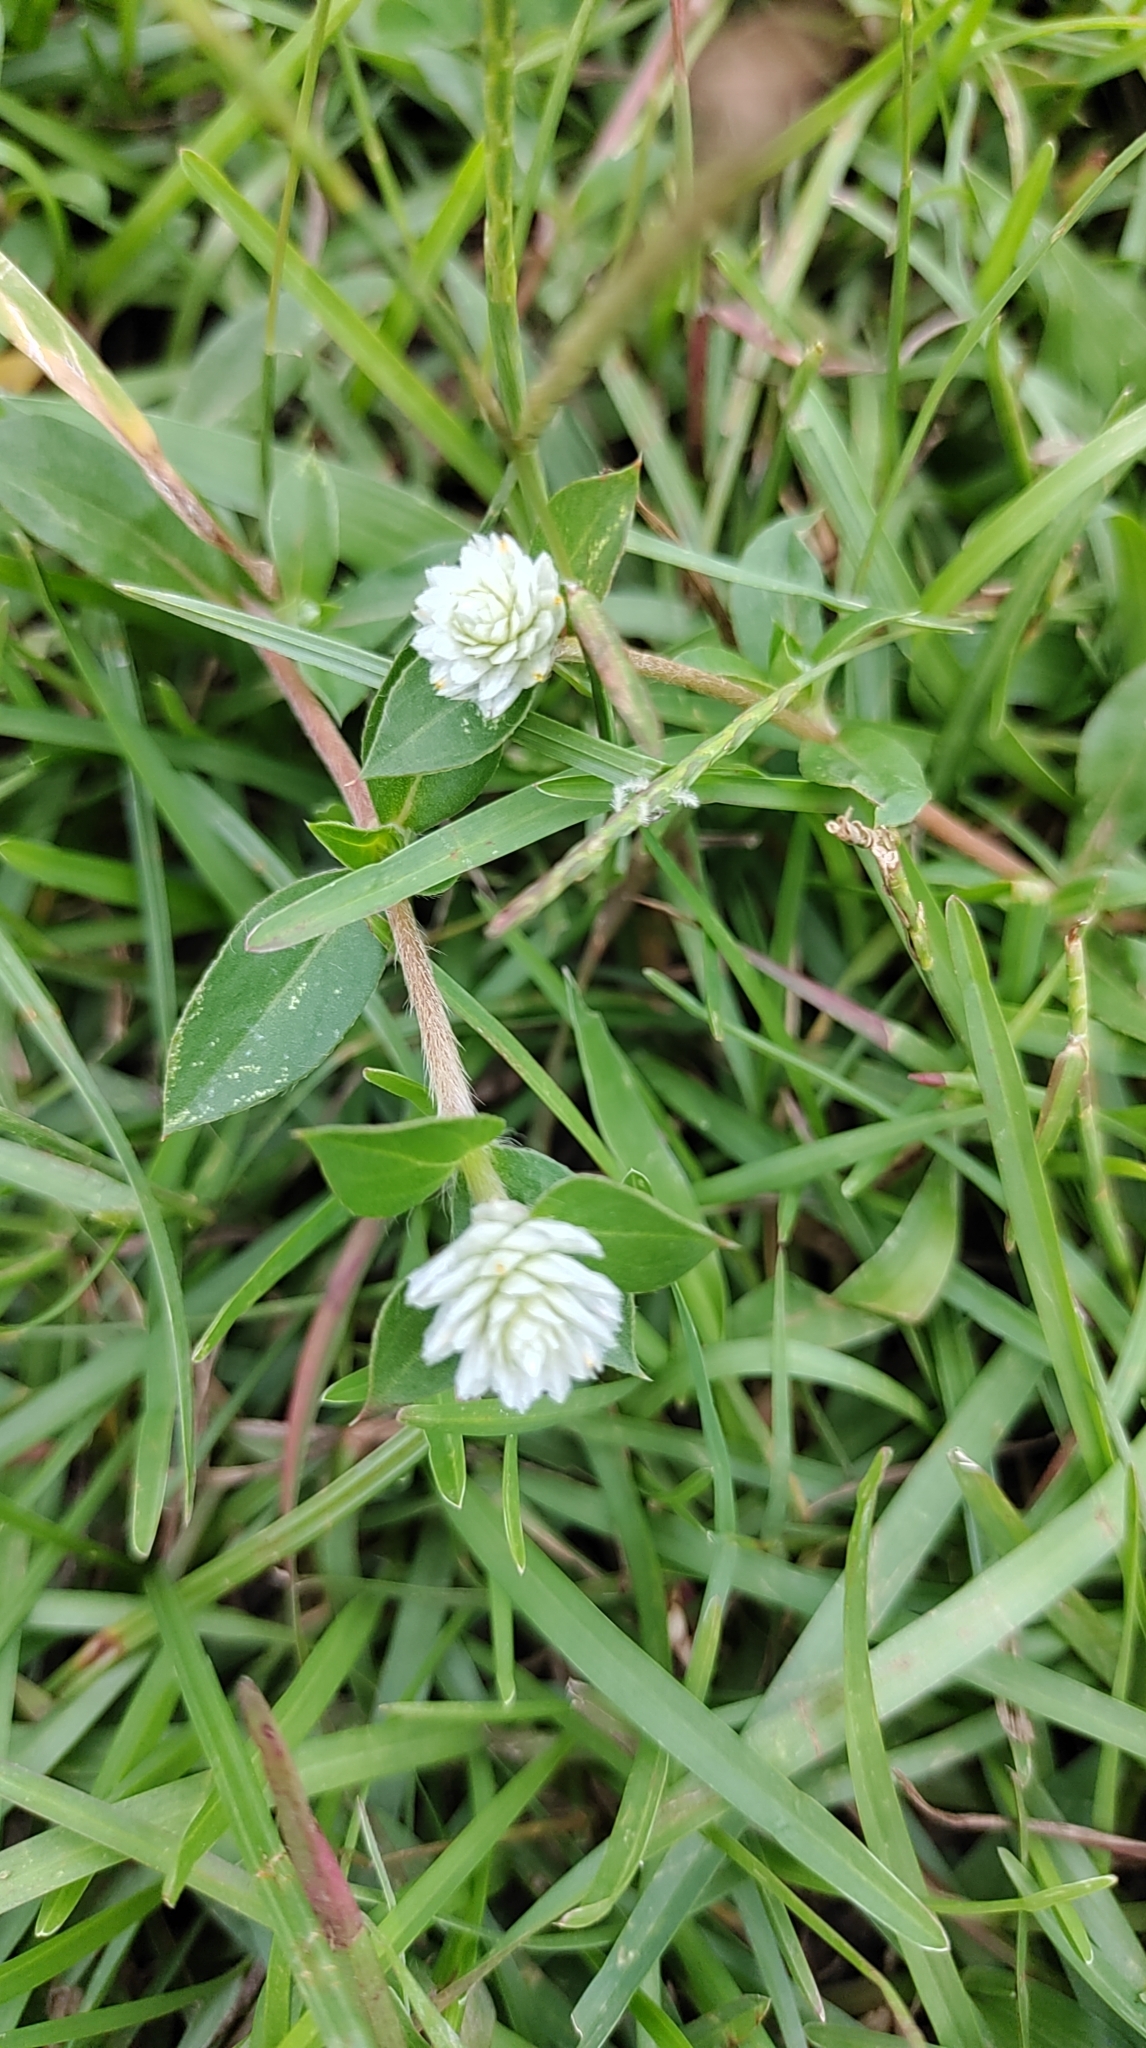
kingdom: Plantae
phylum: Tracheophyta
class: Magnoliopsida
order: Caryophyllales
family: Amaranthaceae
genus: Gomphrena
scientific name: Gomphrena serrata
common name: Arrasa con todo
